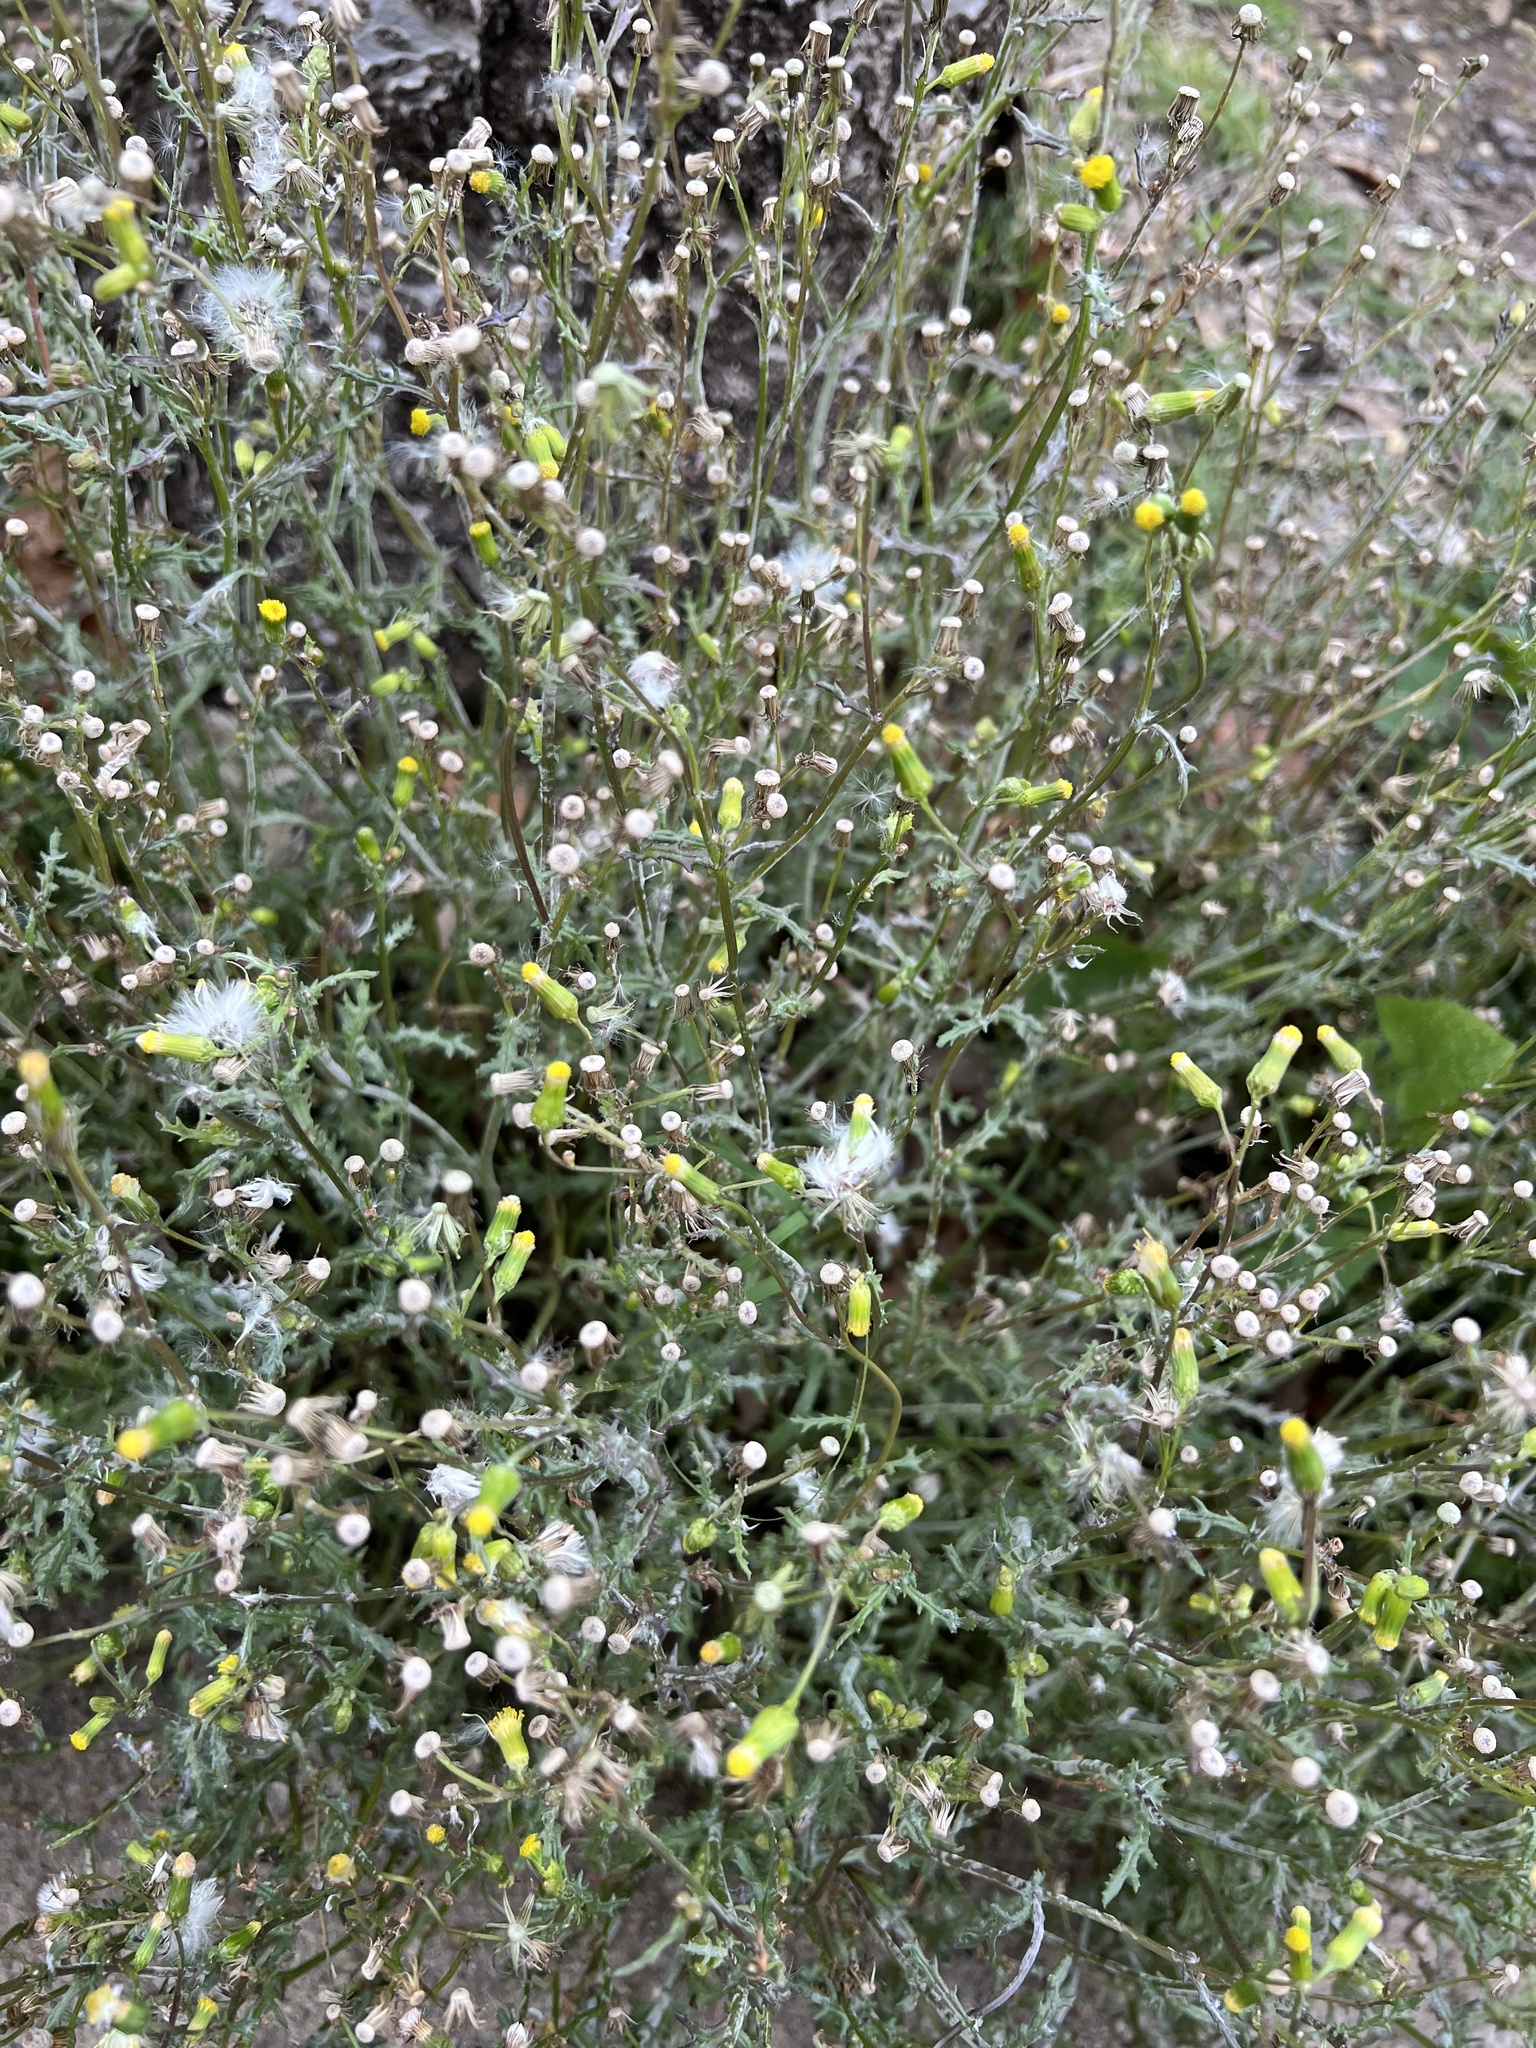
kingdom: Plantae
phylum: Tracheophyta
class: Magnoliopsida
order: Asterales
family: Asteraceae
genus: Senecio
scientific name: Senecio vulgaris
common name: Old-man-in-the-spring
